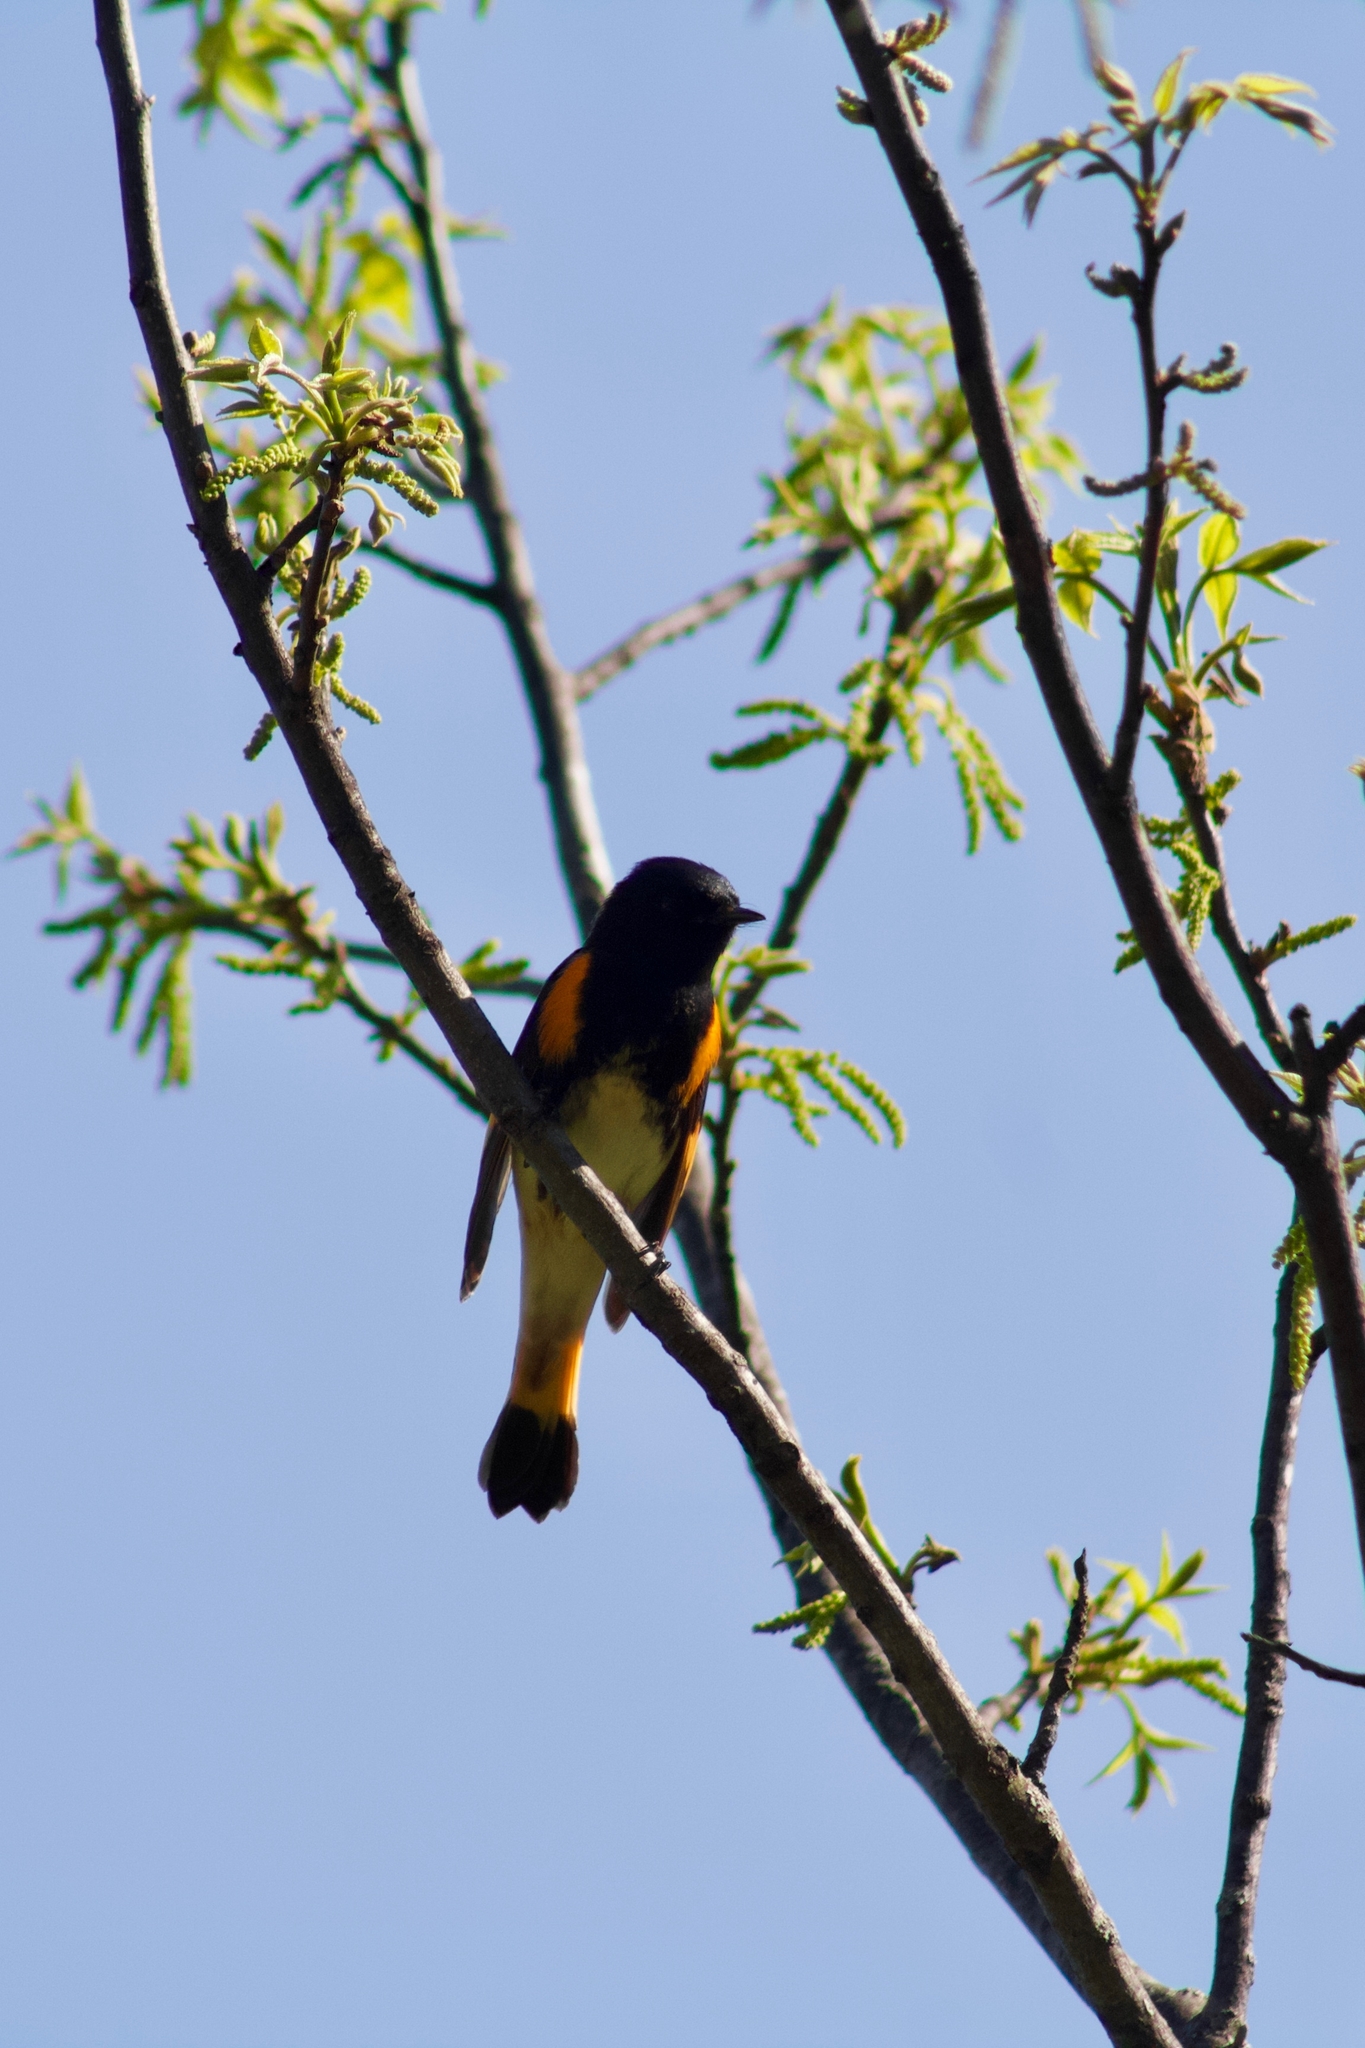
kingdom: Animalia
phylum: Chordata
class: Aves
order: Passeriformes
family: Parulidae
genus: Setophaga
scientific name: Setophaga ruticilla
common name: American redstart
